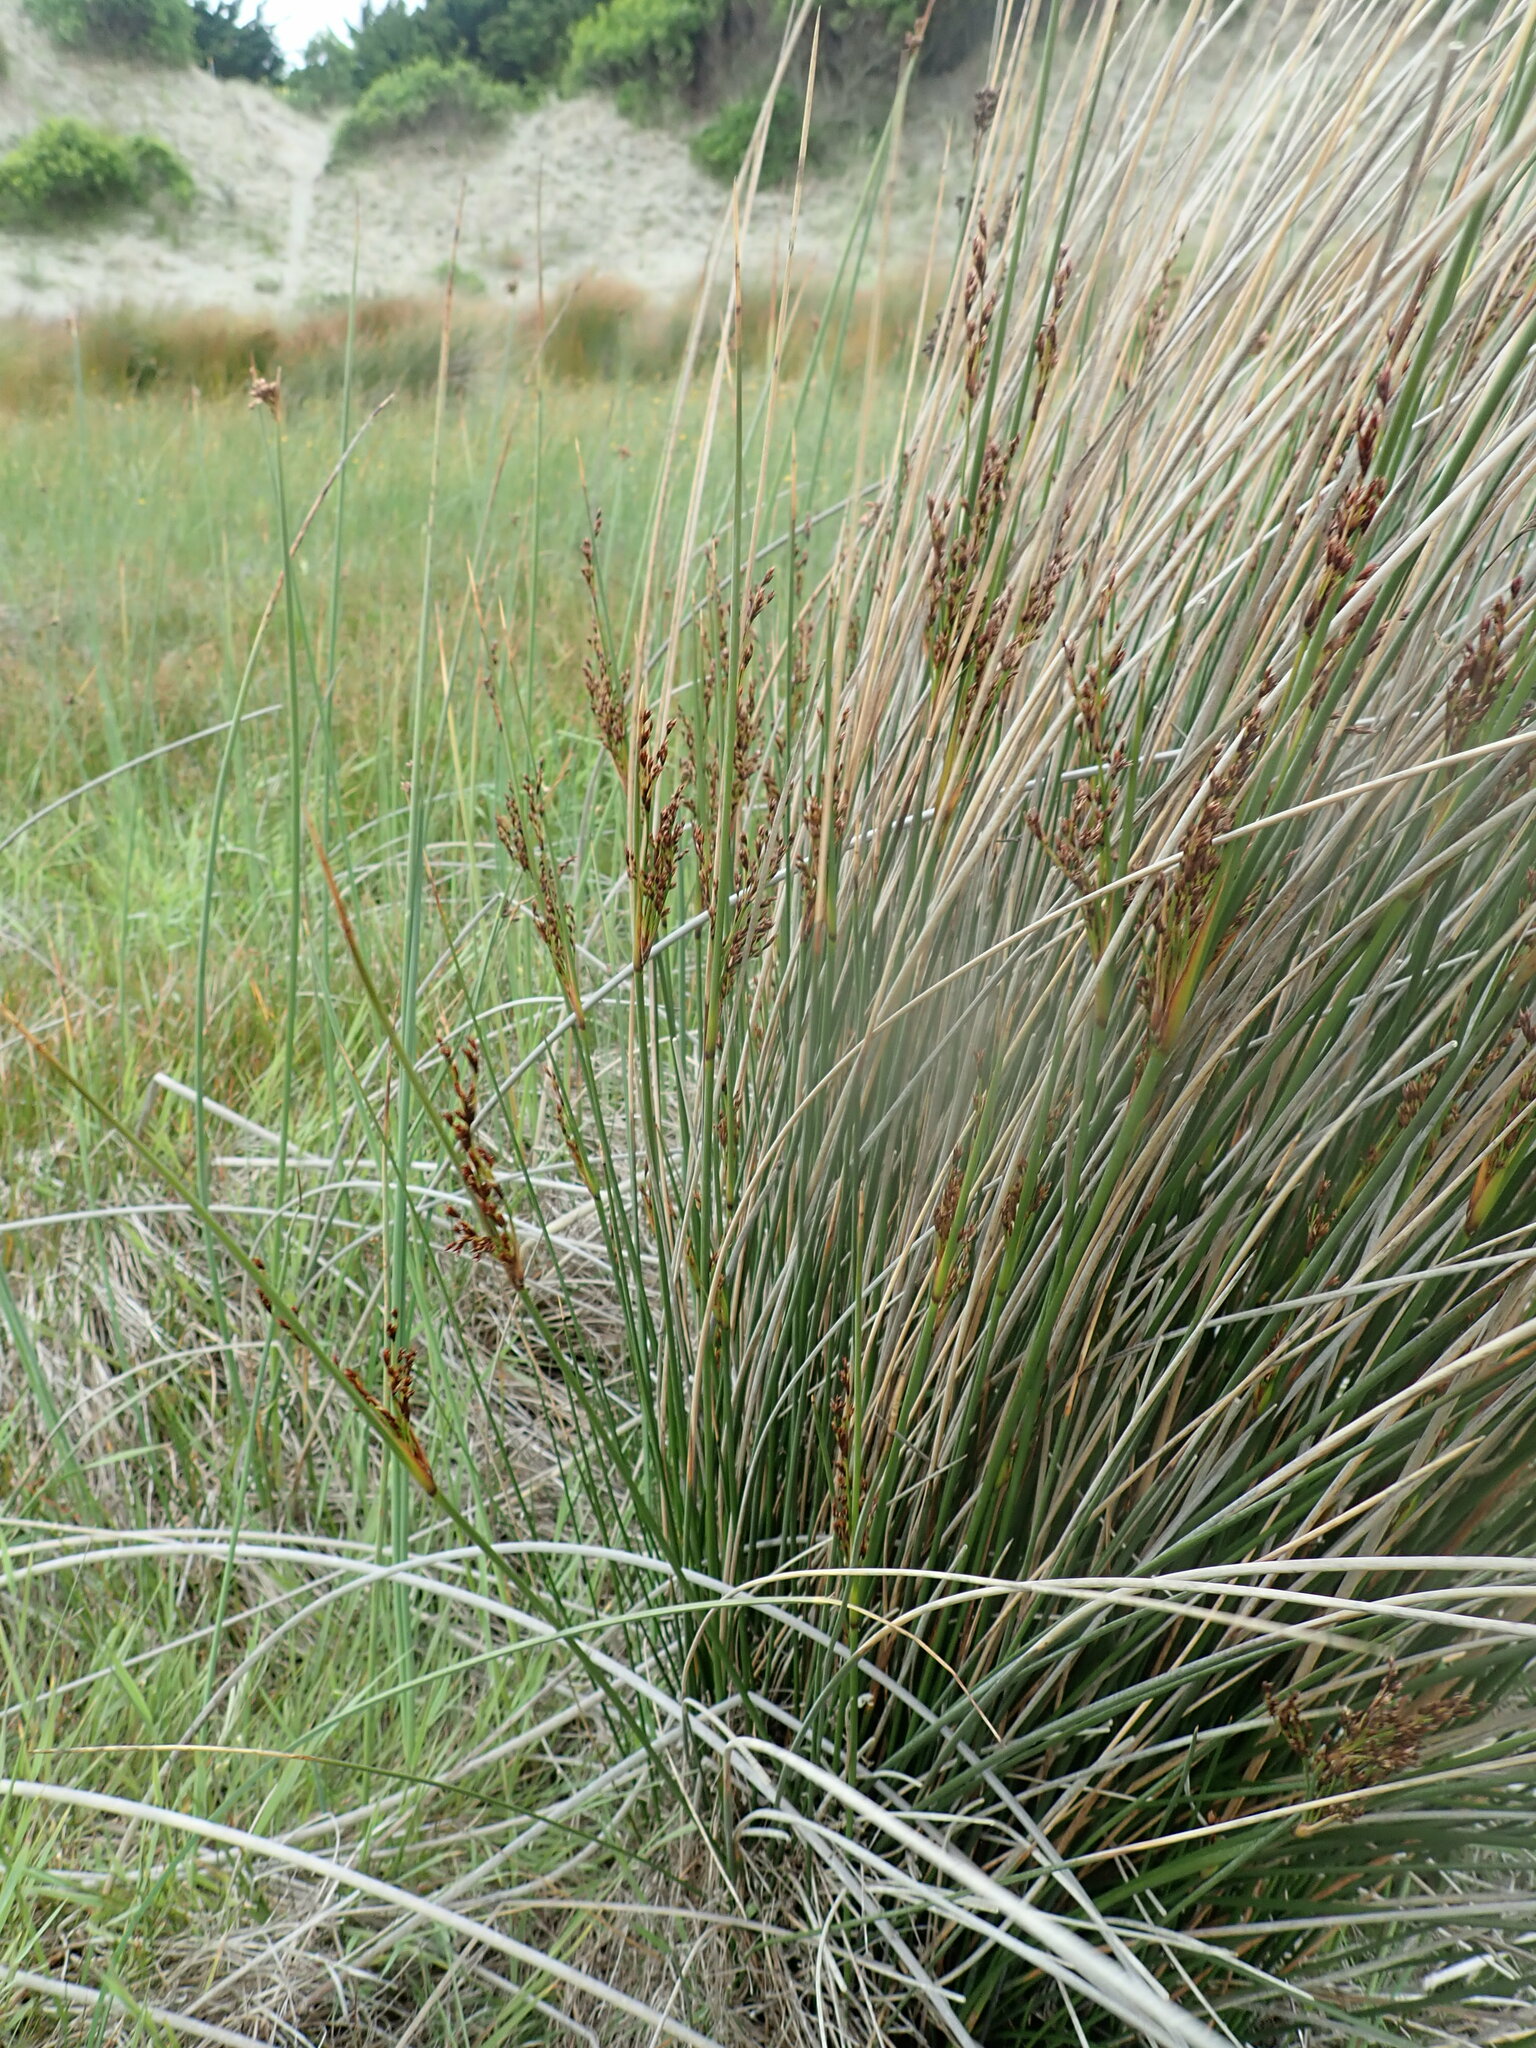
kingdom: Plantae
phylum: Tracheophyta
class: Liliopsida
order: Poales
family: Juncaceae
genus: Juncus
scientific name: Juncus kraussii
